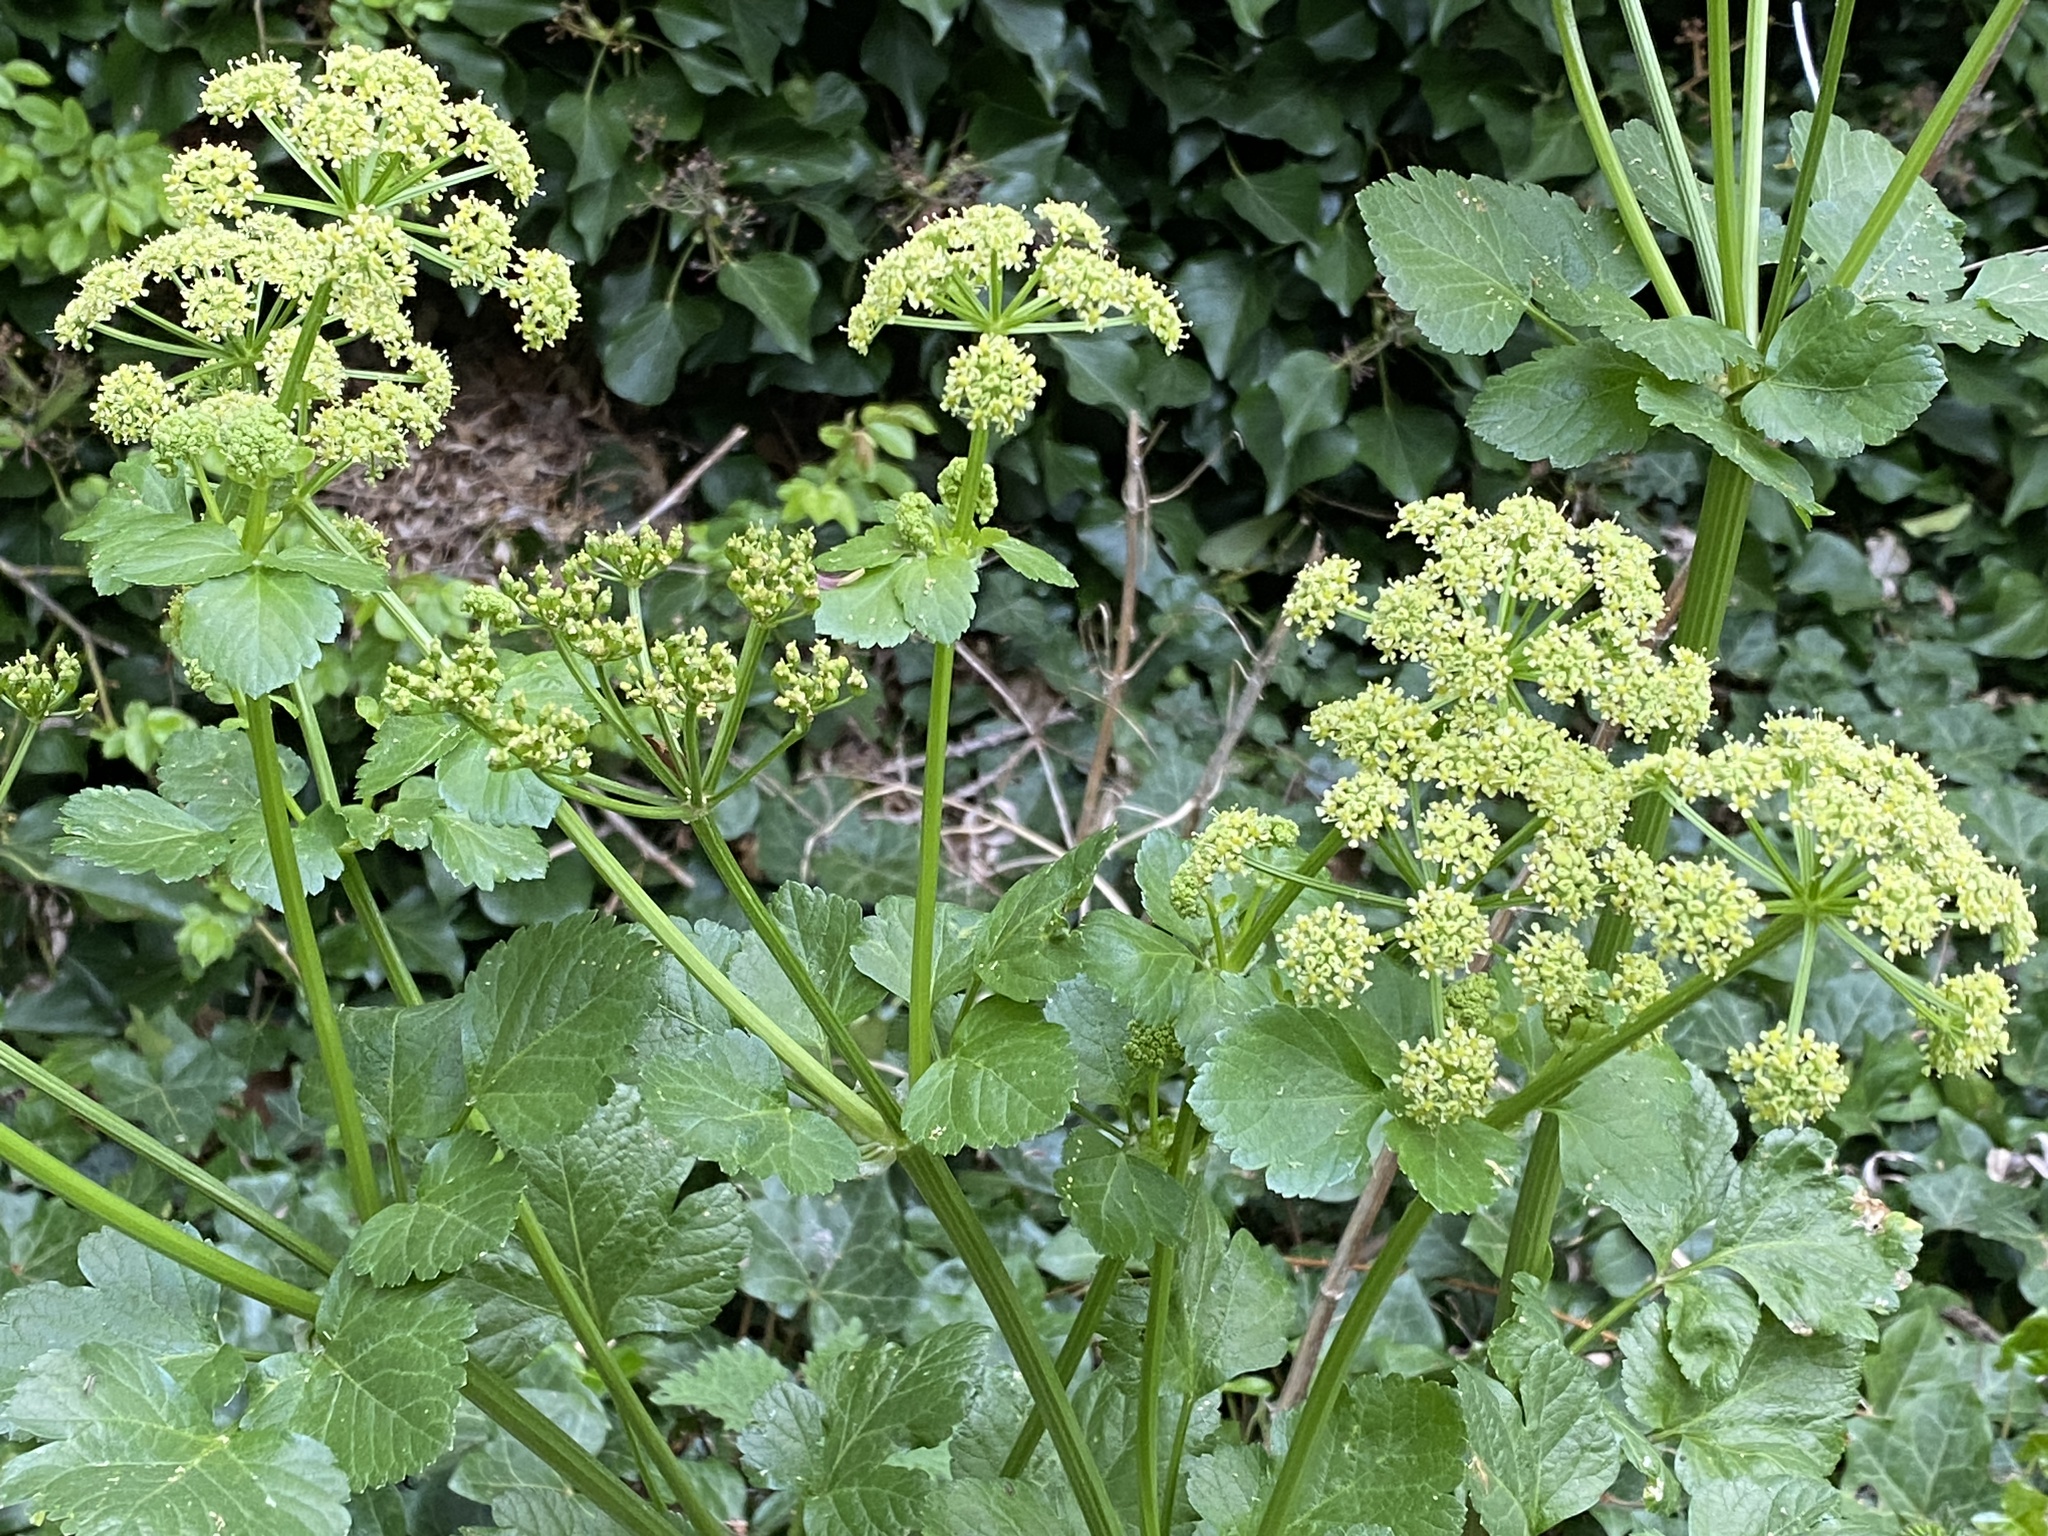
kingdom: Plantae
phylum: Tracheophyta
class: Magnoliopsida
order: Apiales
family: Apiaceae
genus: Smyrnium
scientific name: Smyrnium olusatrum
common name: Alexanders
